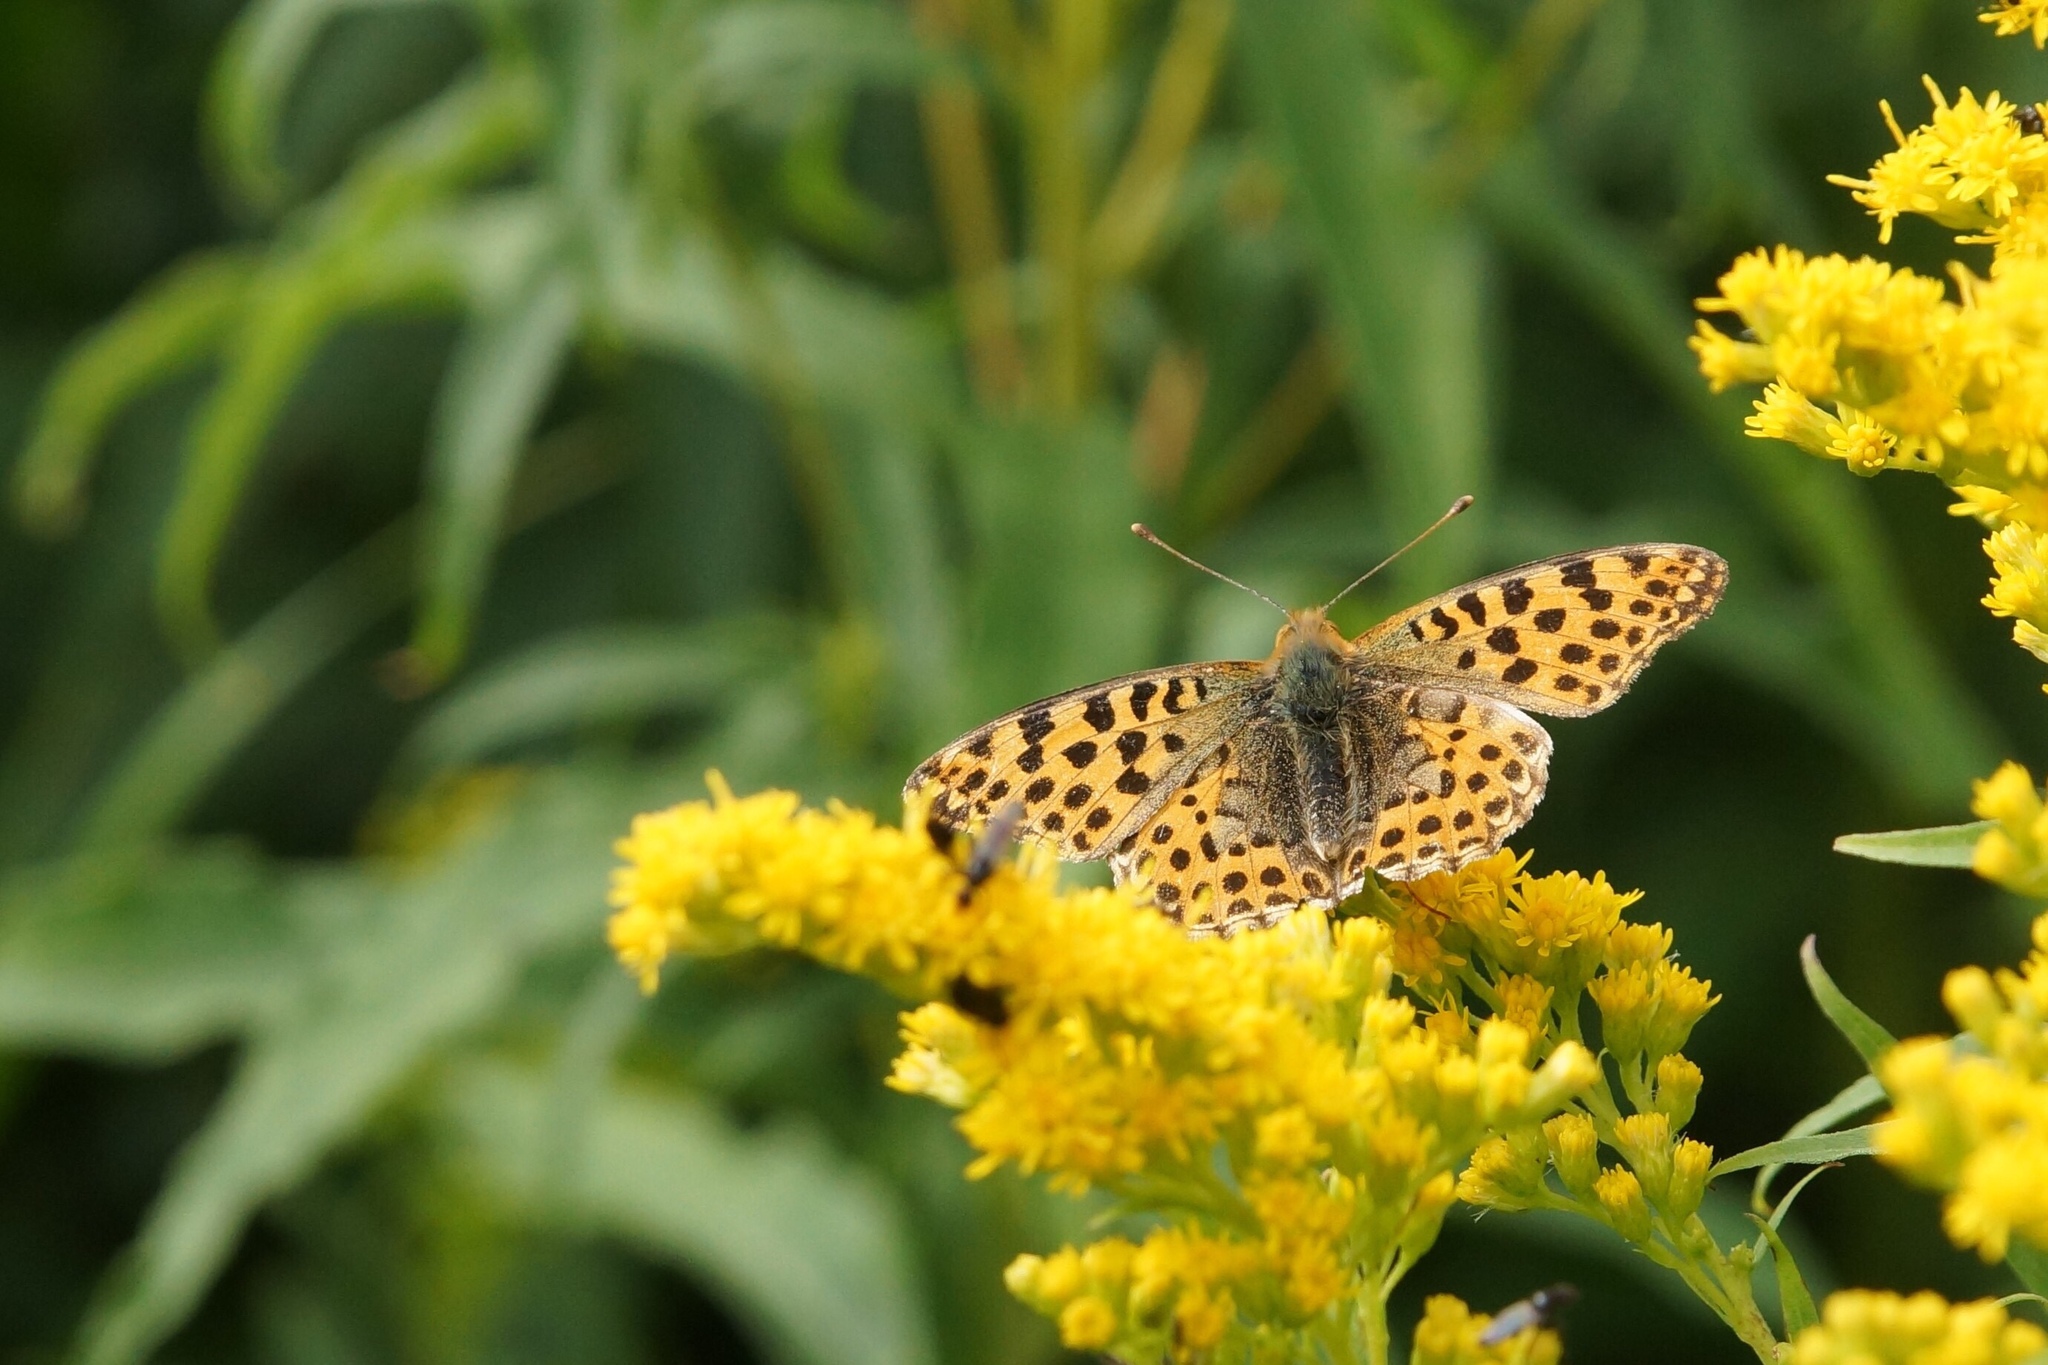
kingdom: Animalia
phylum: Arthropoda
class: Insecta
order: Lepidoptera
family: Nymphalidae
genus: Issoria
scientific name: Issoria lathonia
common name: Queen of spain fritillary
